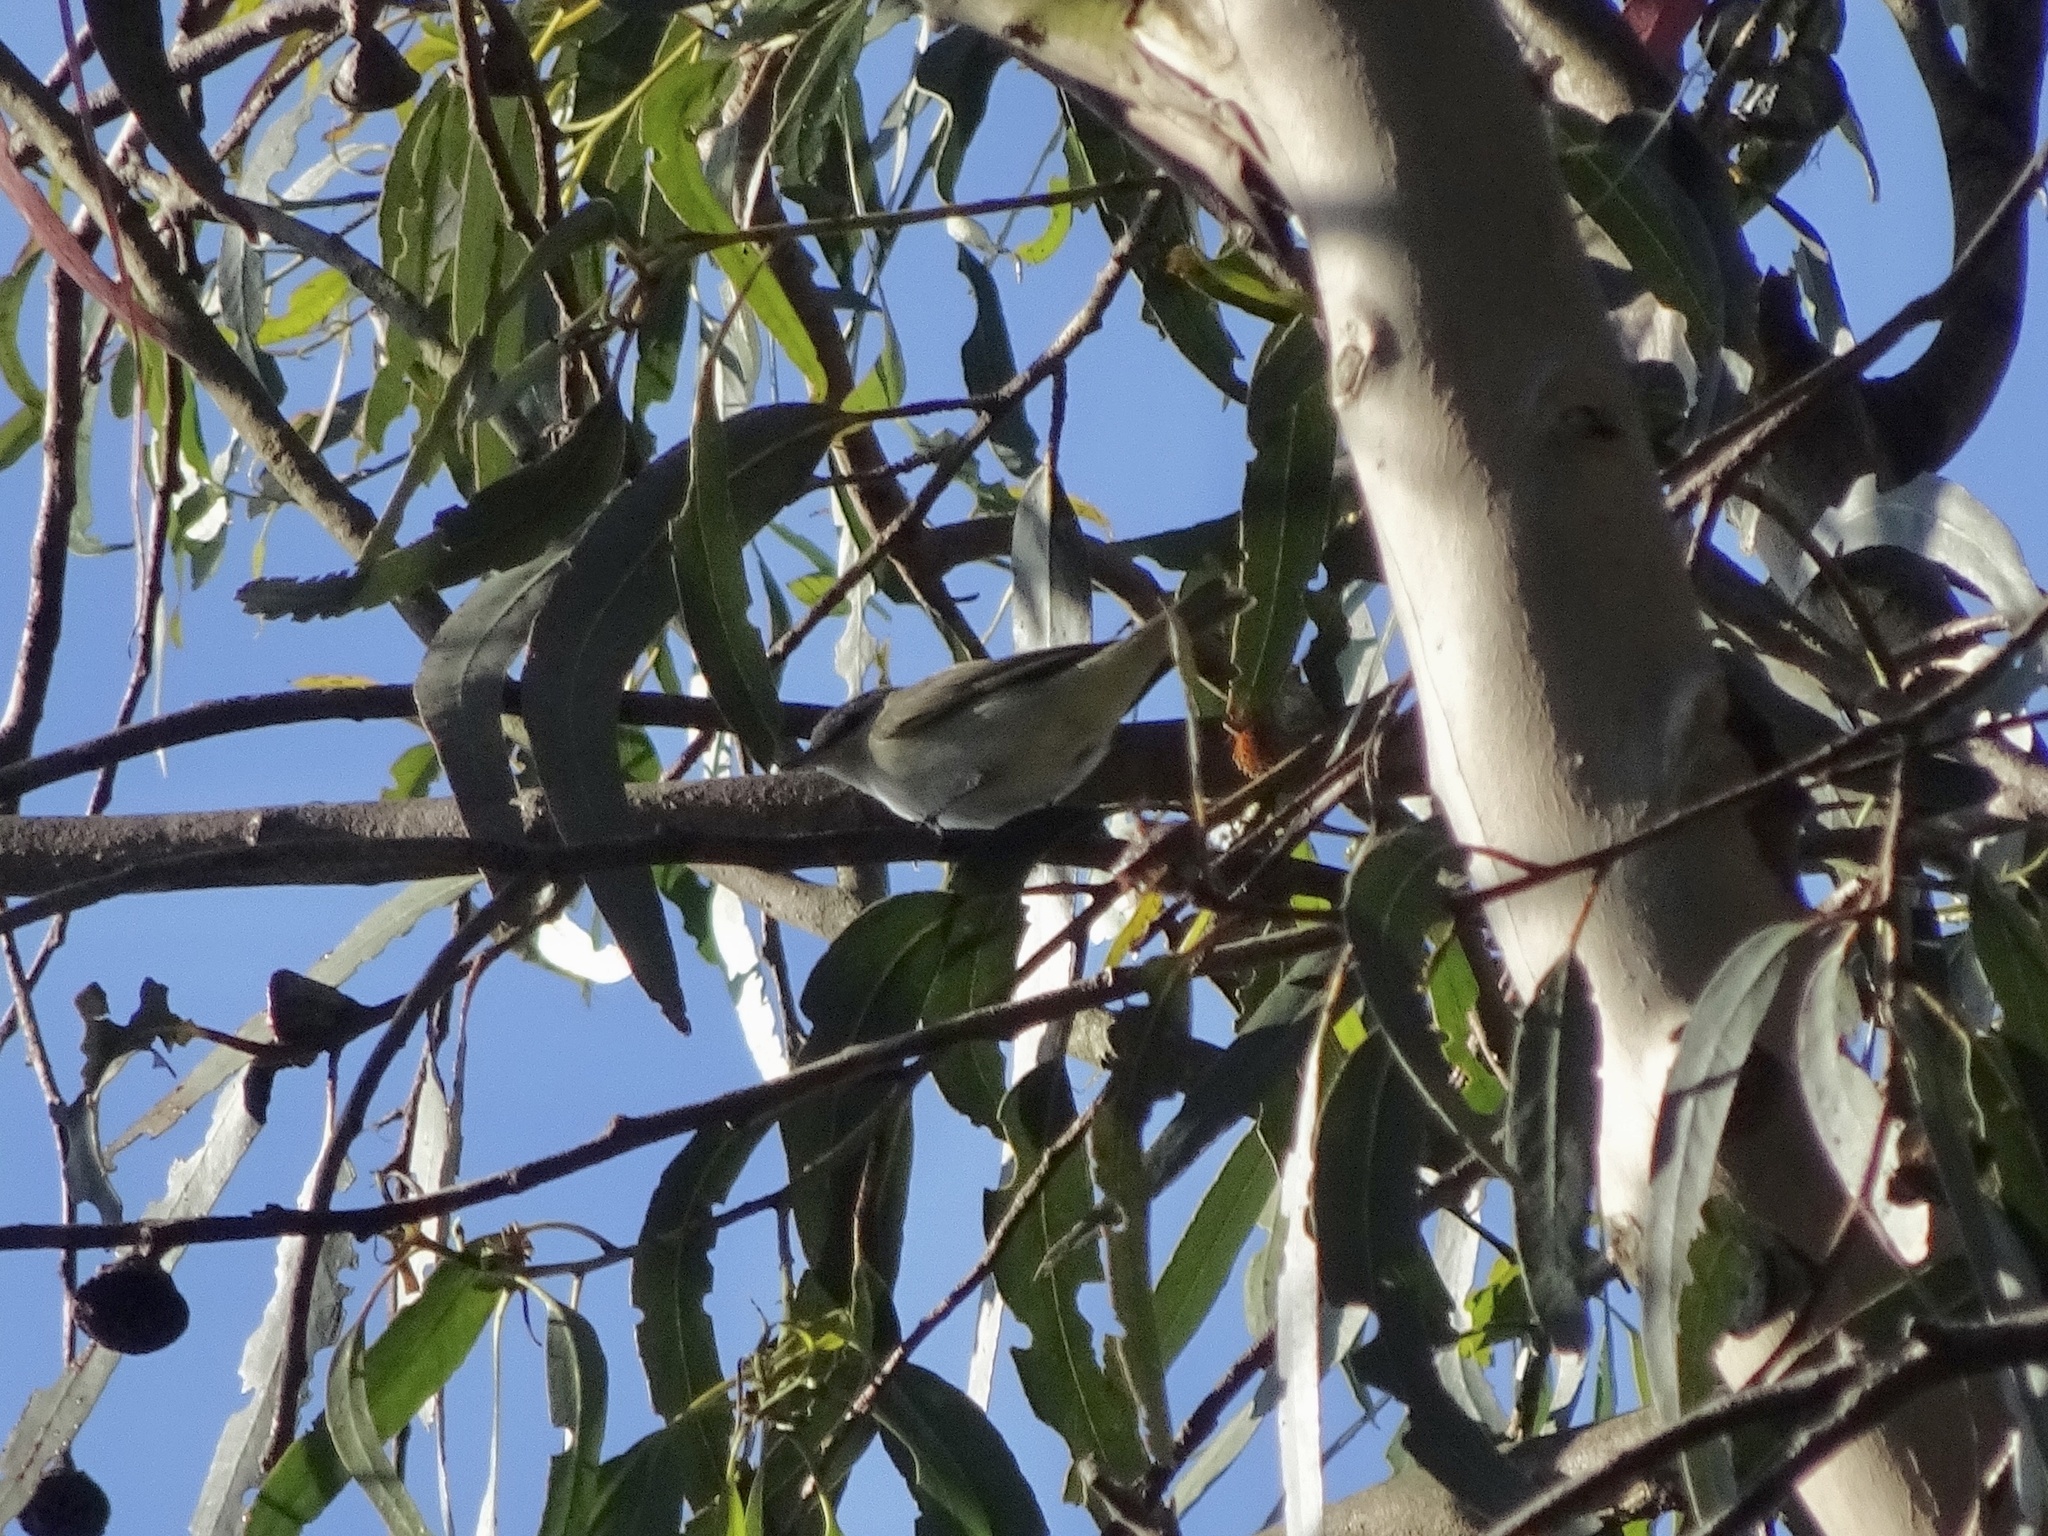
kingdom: Animalia
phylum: Chordata
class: Aves
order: Passeriformes
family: Vireonidae
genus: Vireo
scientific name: Vireo olivaceus
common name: Red-eyed vireo
